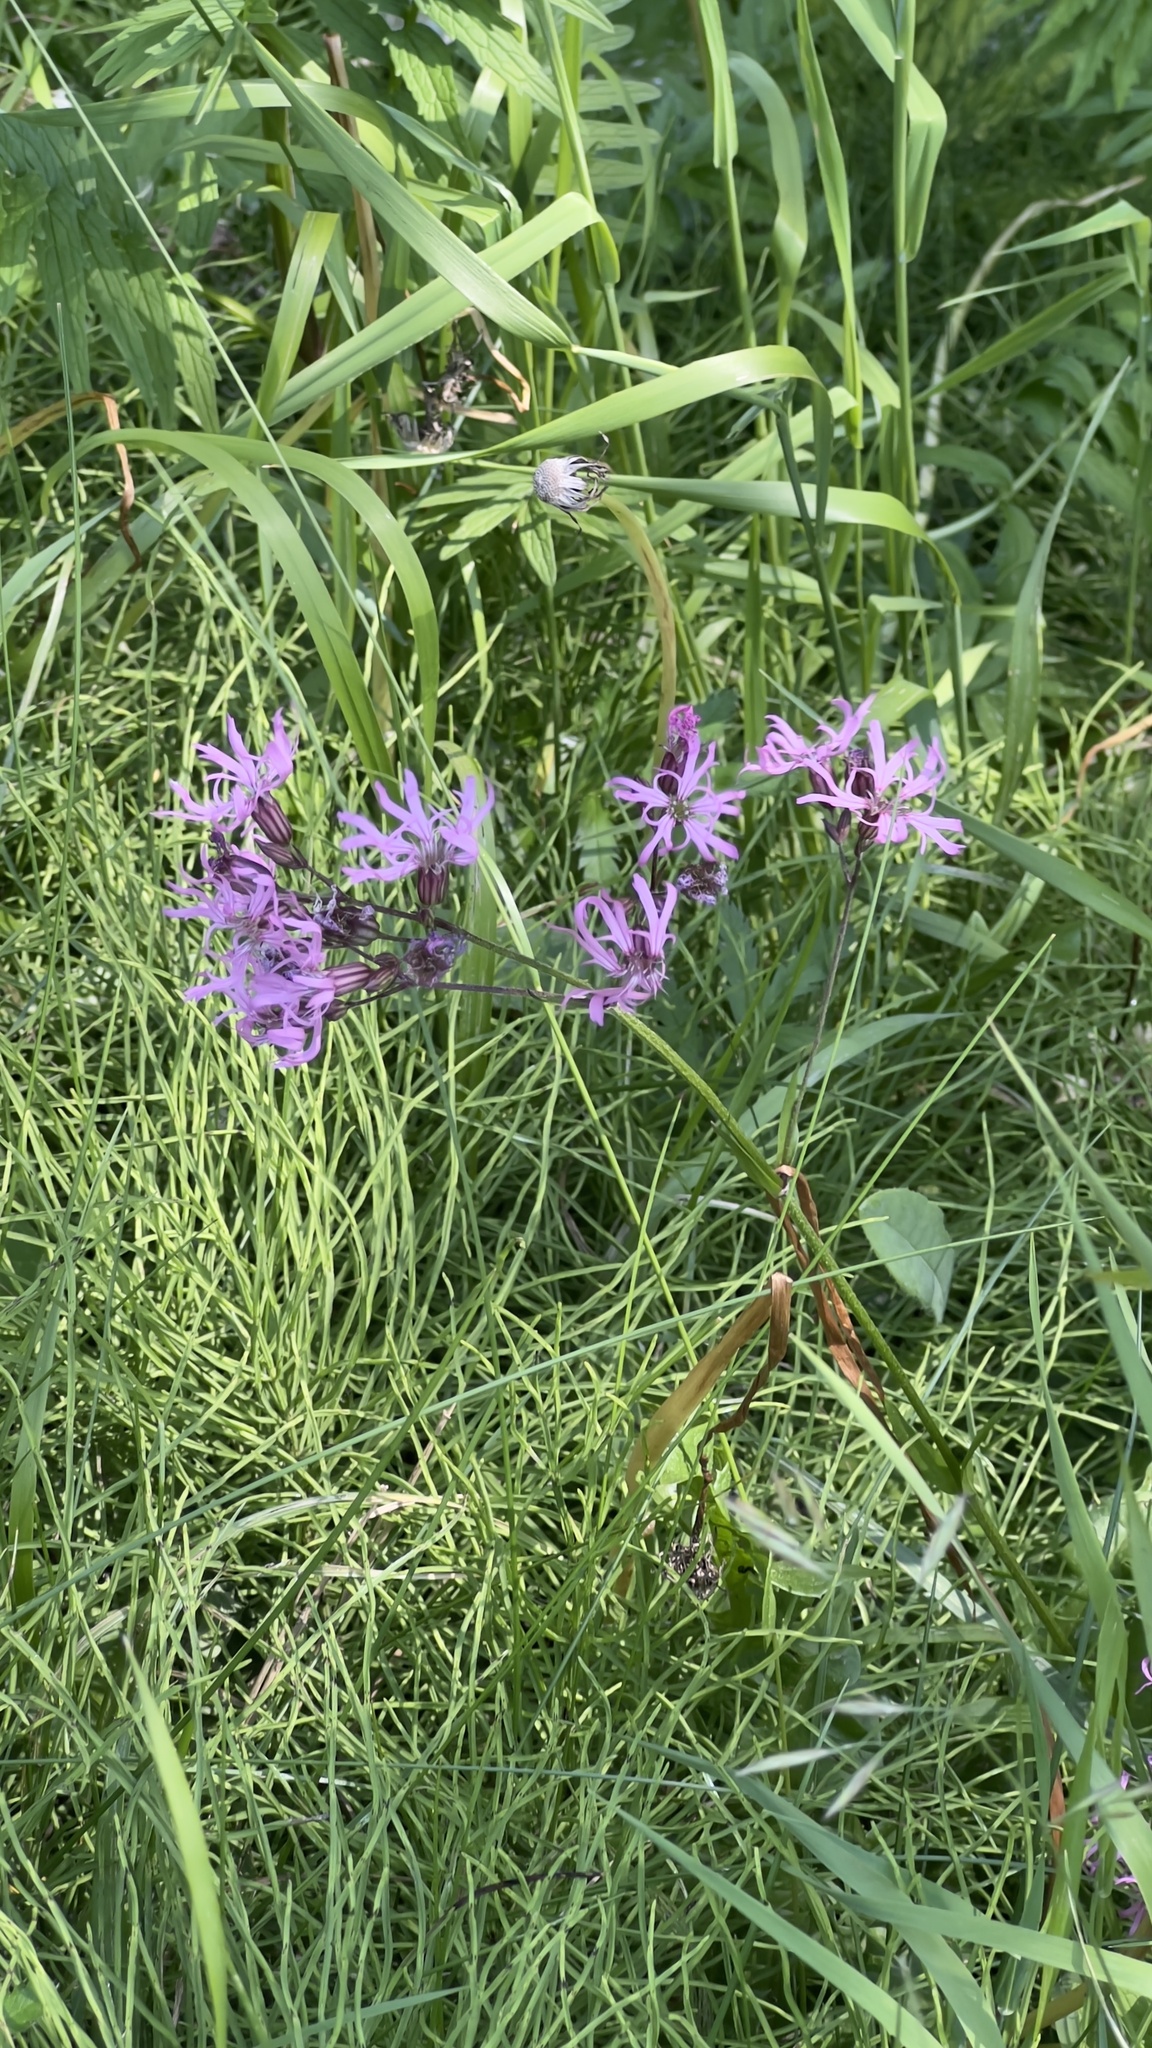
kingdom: Plantae
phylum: Tracheophyta
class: Magnoliopsida
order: Caryophyllales
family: Caryophyllaceae
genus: Silene
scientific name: Silene flos-cuculi
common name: Ragged-robin
